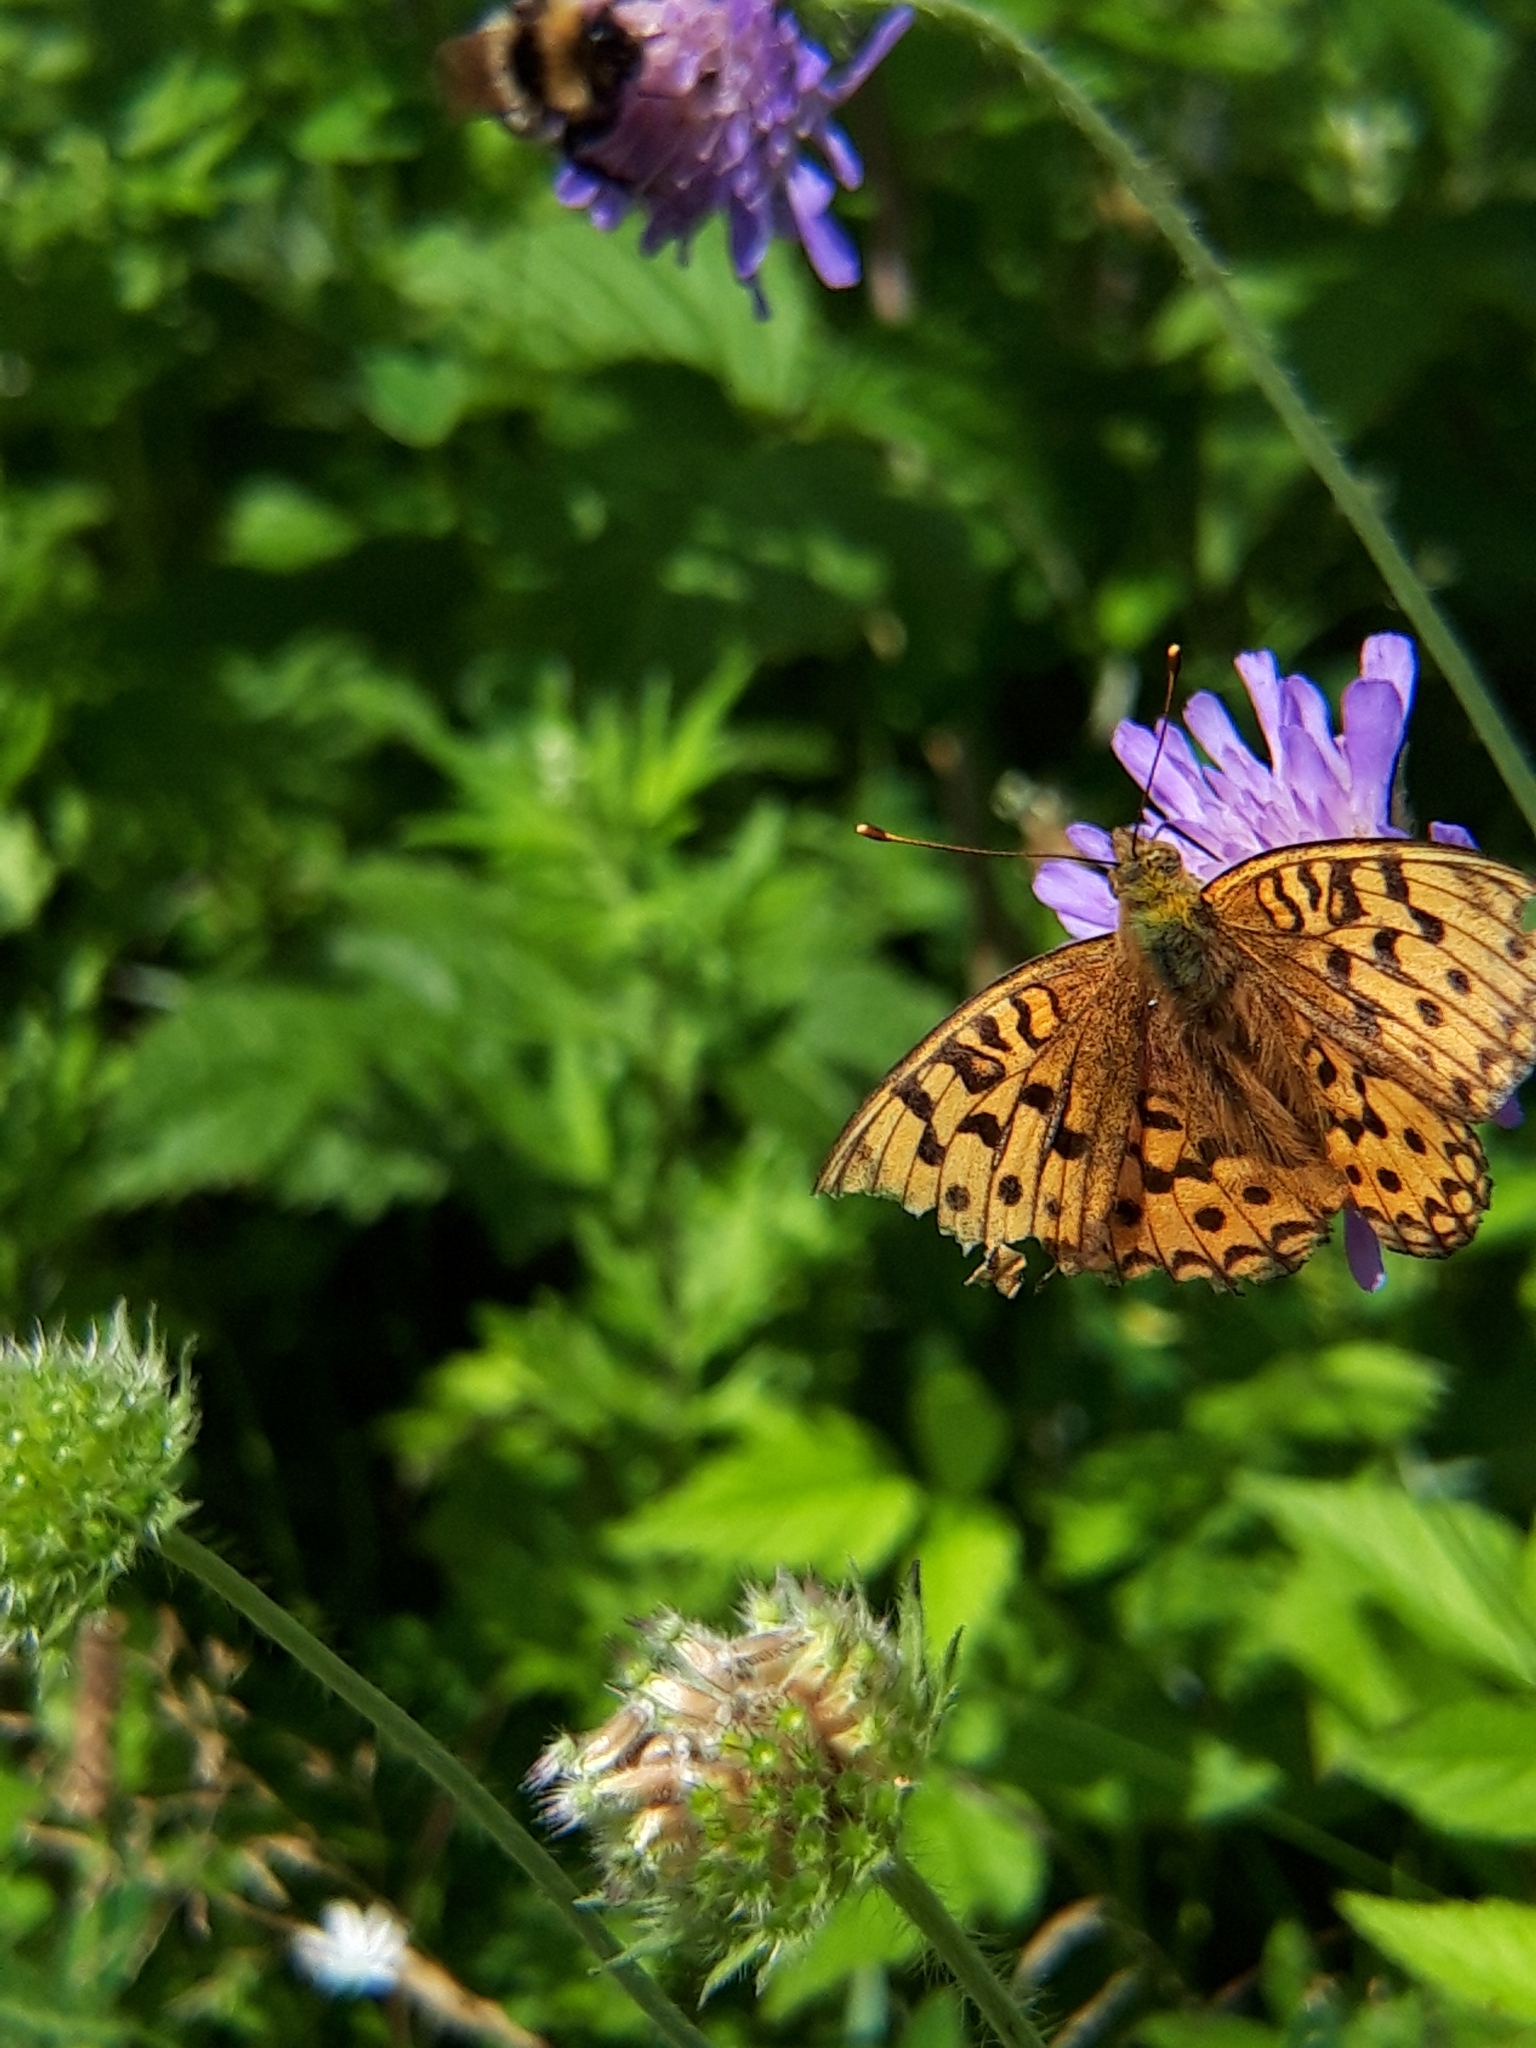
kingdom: Animalia
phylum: Arthropoda
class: Insecta
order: Lepidoptera
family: Nymphalidae
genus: Fabriciana
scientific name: Fabriciana adippe
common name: High brown fritillary
